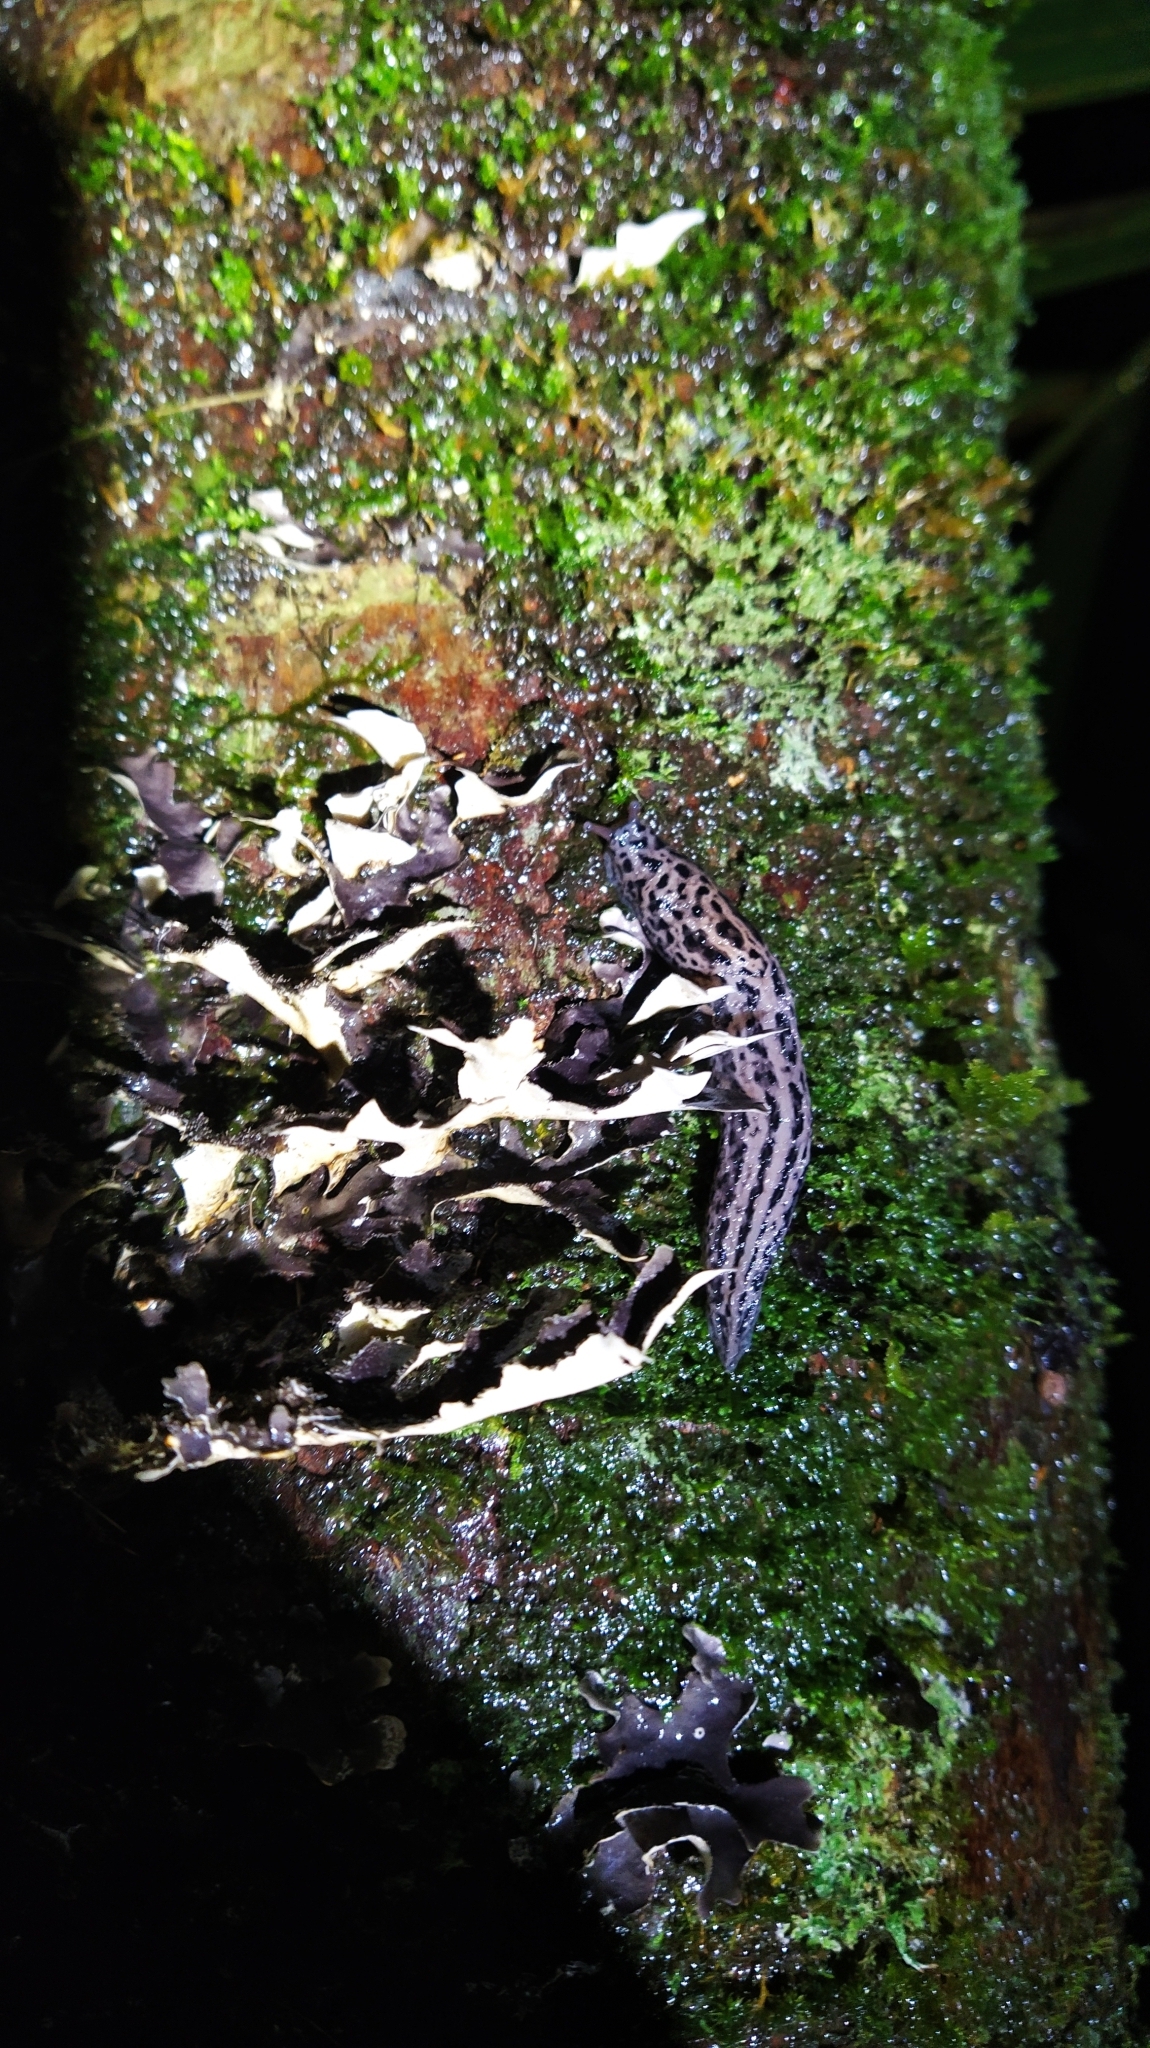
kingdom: Animalia
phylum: Mollusca
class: Gastropoda
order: Stylommatophora
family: Limacidae
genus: Limax
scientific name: Limax maximus
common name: Great grey slug
